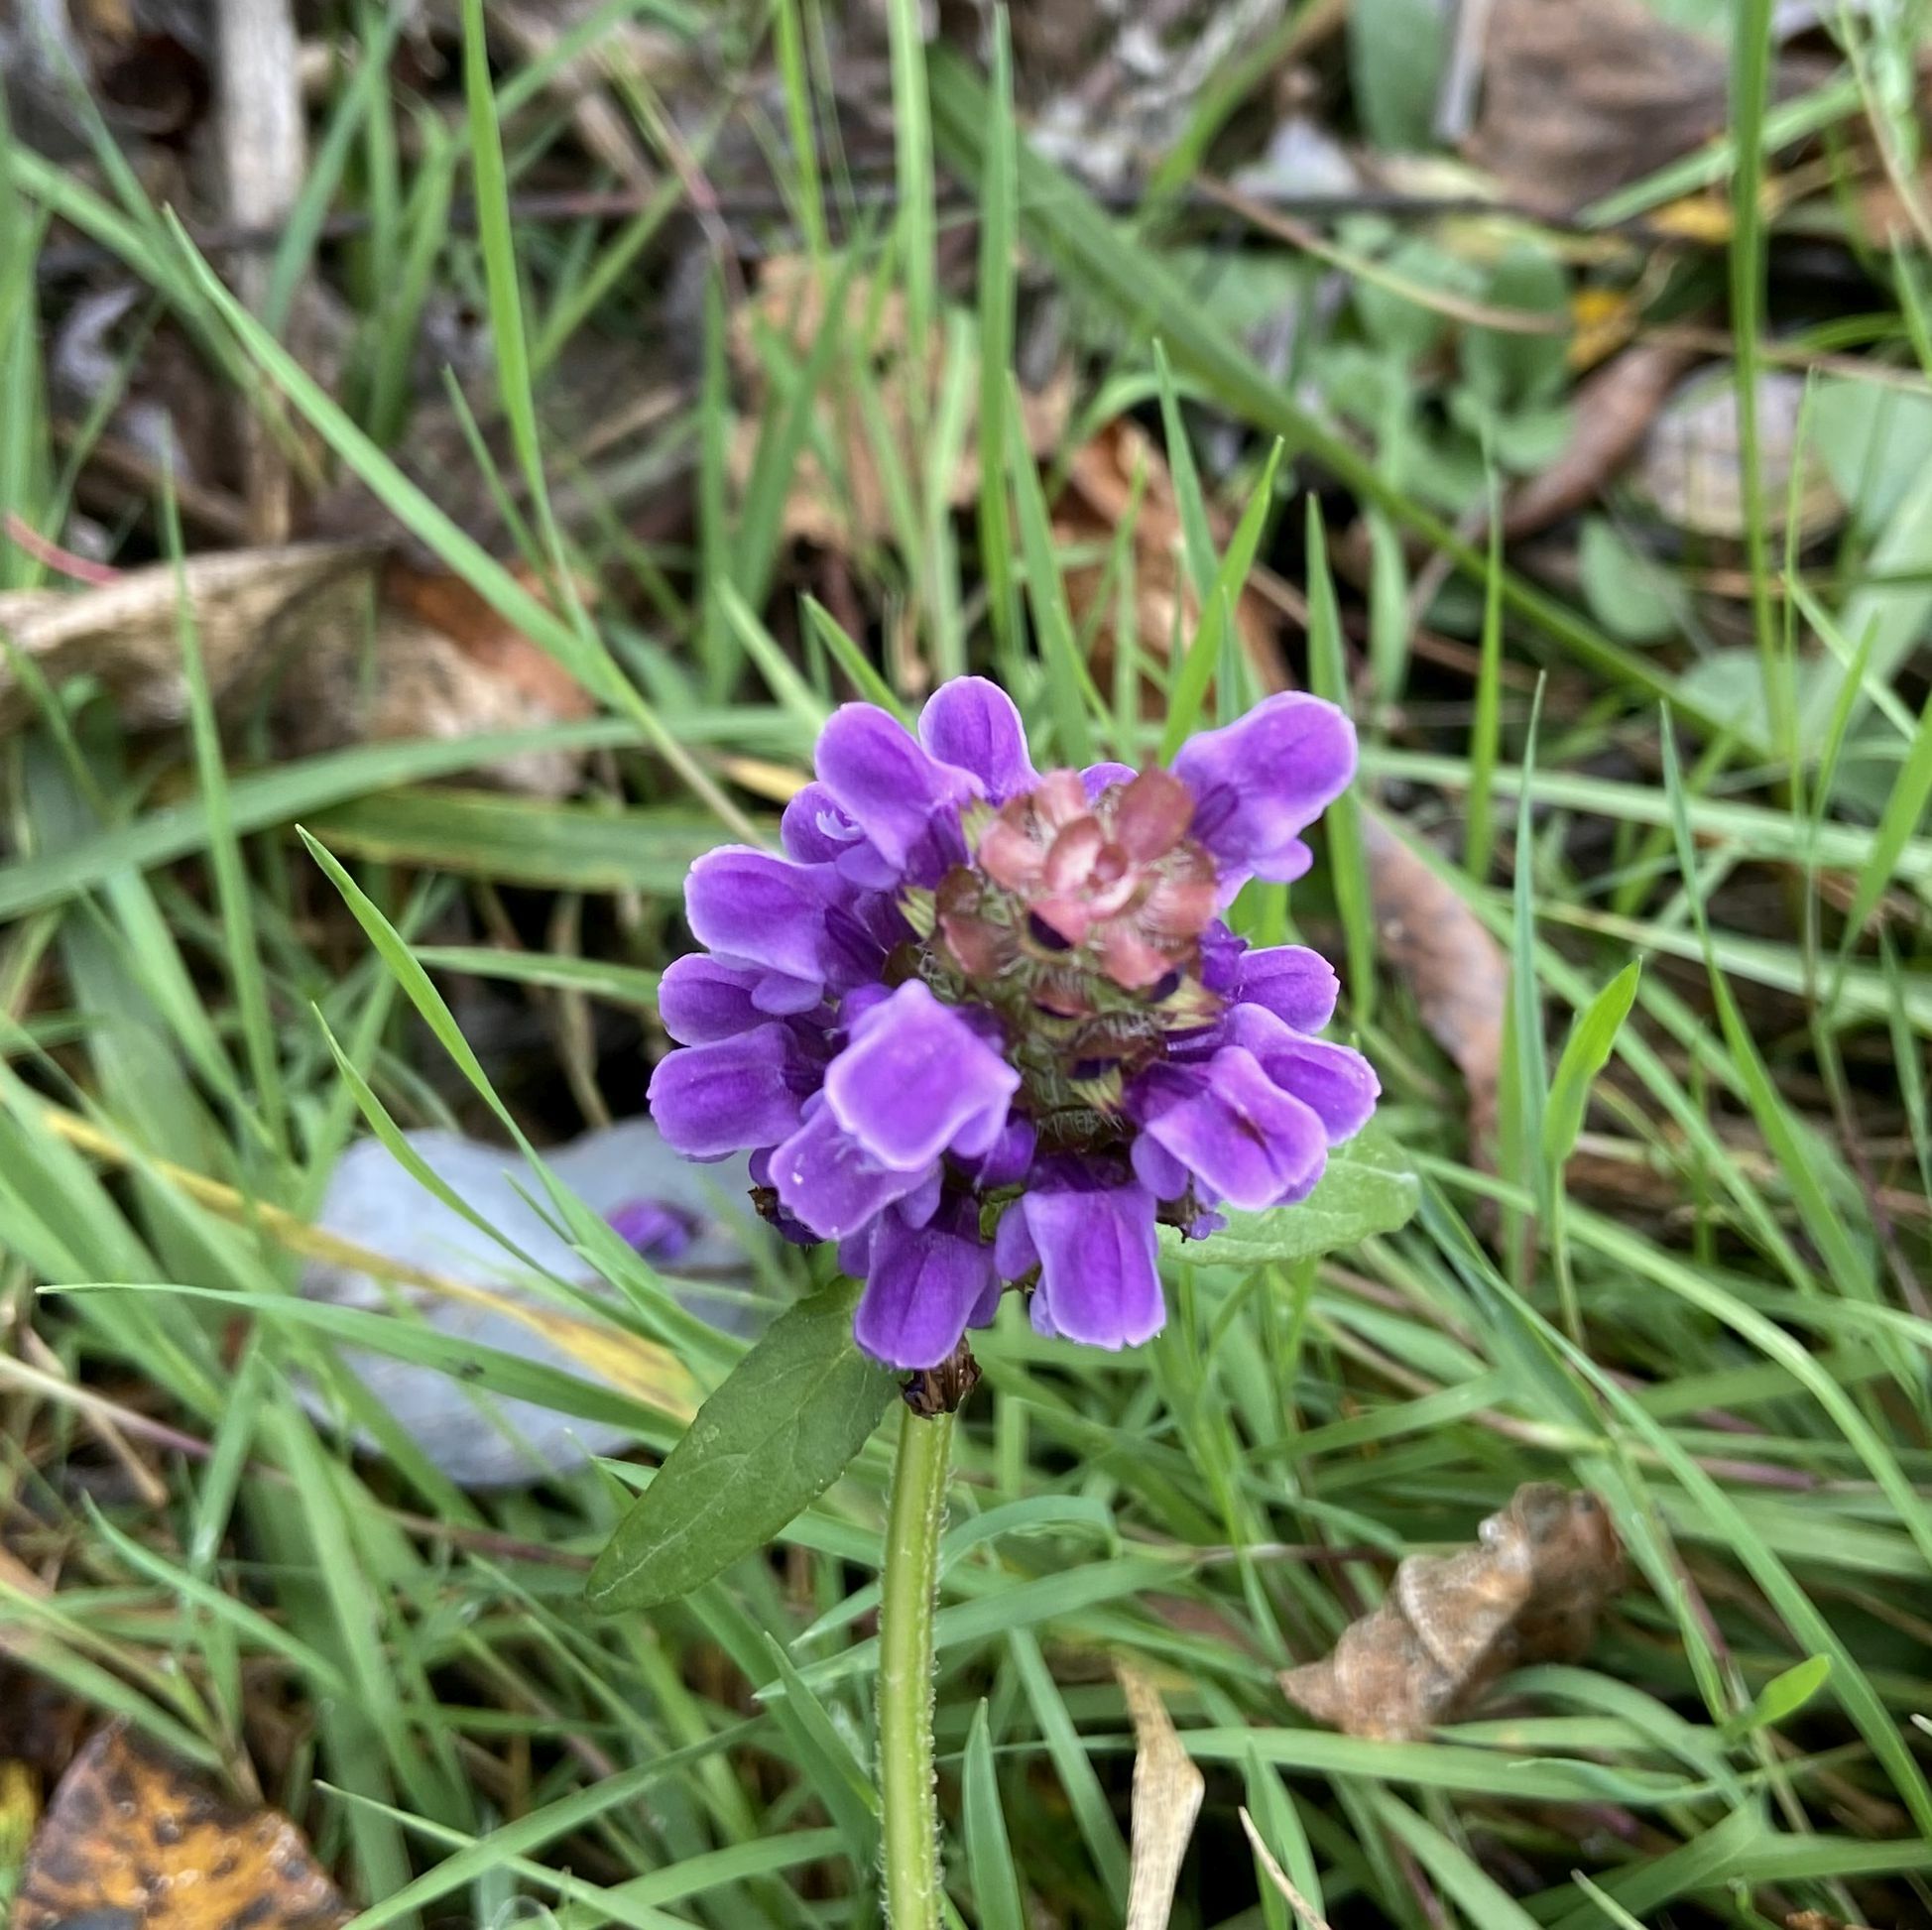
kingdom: Plantae
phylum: Tracheophyta
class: Magnoliopsida
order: Lamiales
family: Lamiaceae
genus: Prunella
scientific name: Prunella vulgaris
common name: Heal-all
